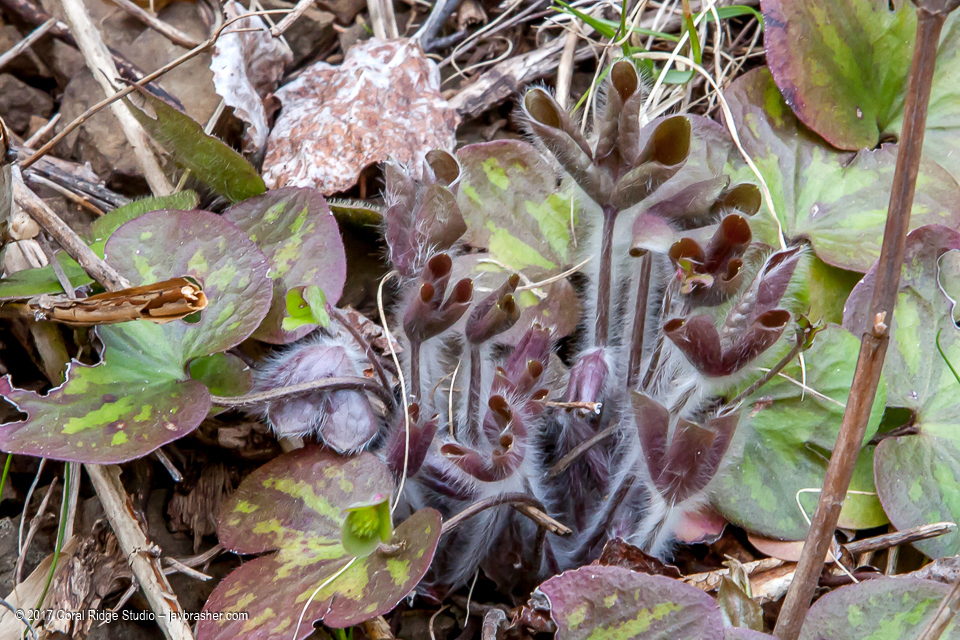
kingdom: Plantae
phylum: Tracheophyta
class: Magnoliopsida
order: Ranunculales
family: Ranunculaceae
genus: Hepatica
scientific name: Hepatica americana
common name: American hepatica
